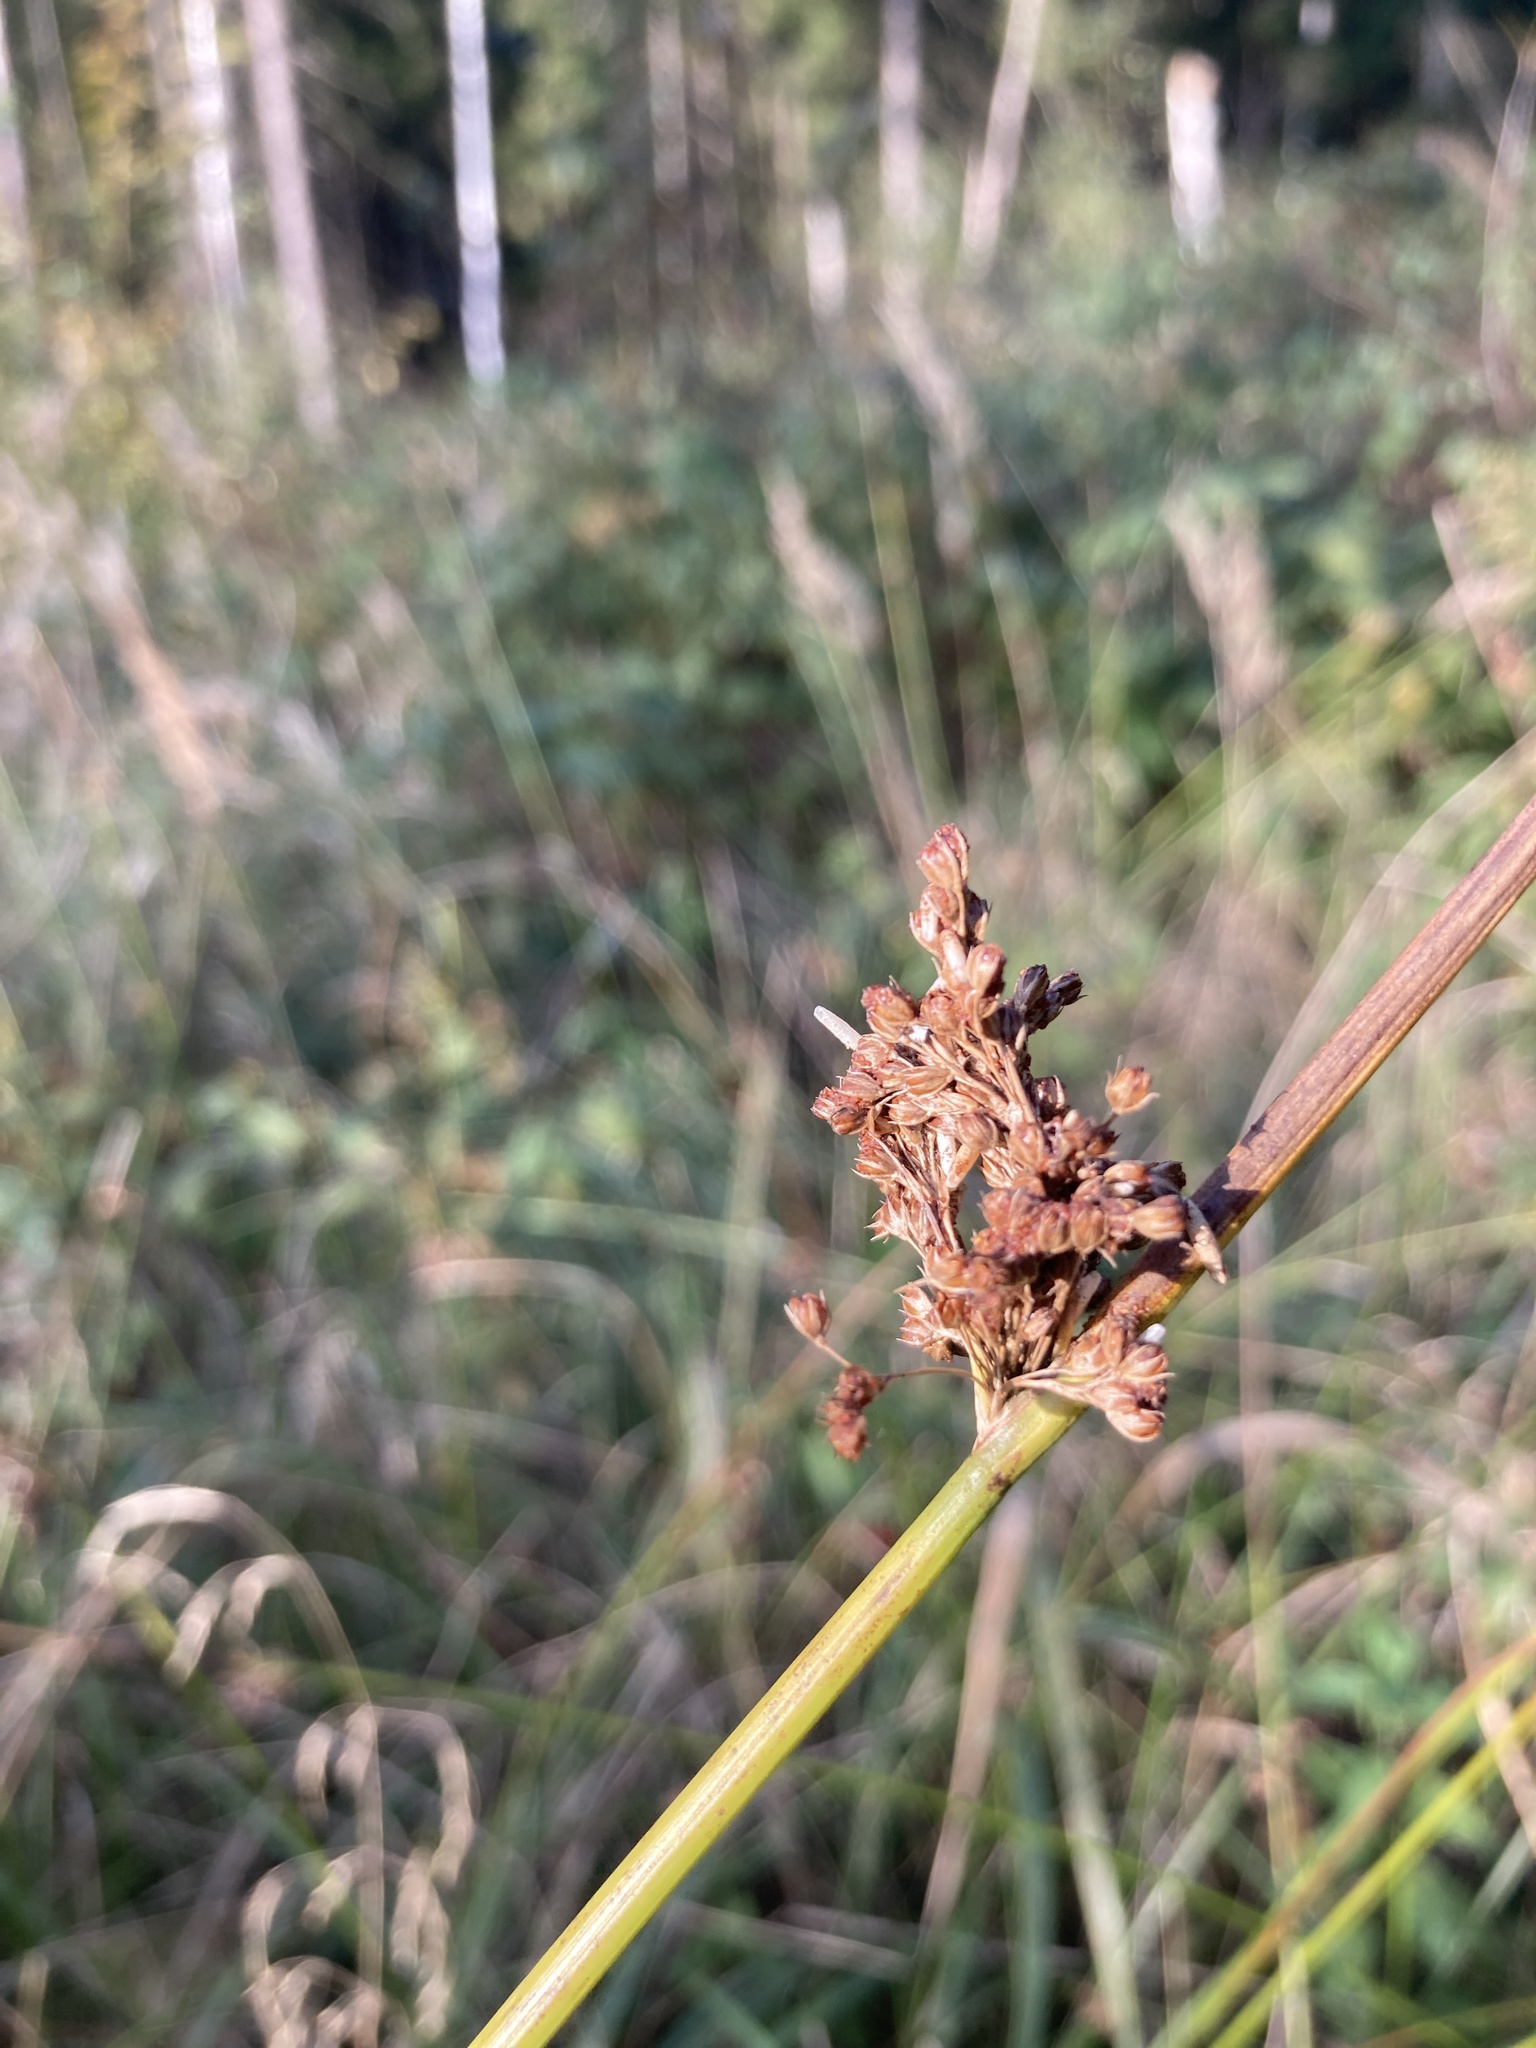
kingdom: Plantae
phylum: Tracheophyta
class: Liliopsida
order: Poales
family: Juncaceae
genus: Juncus
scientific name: Juncus effusus
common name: Soft rush
